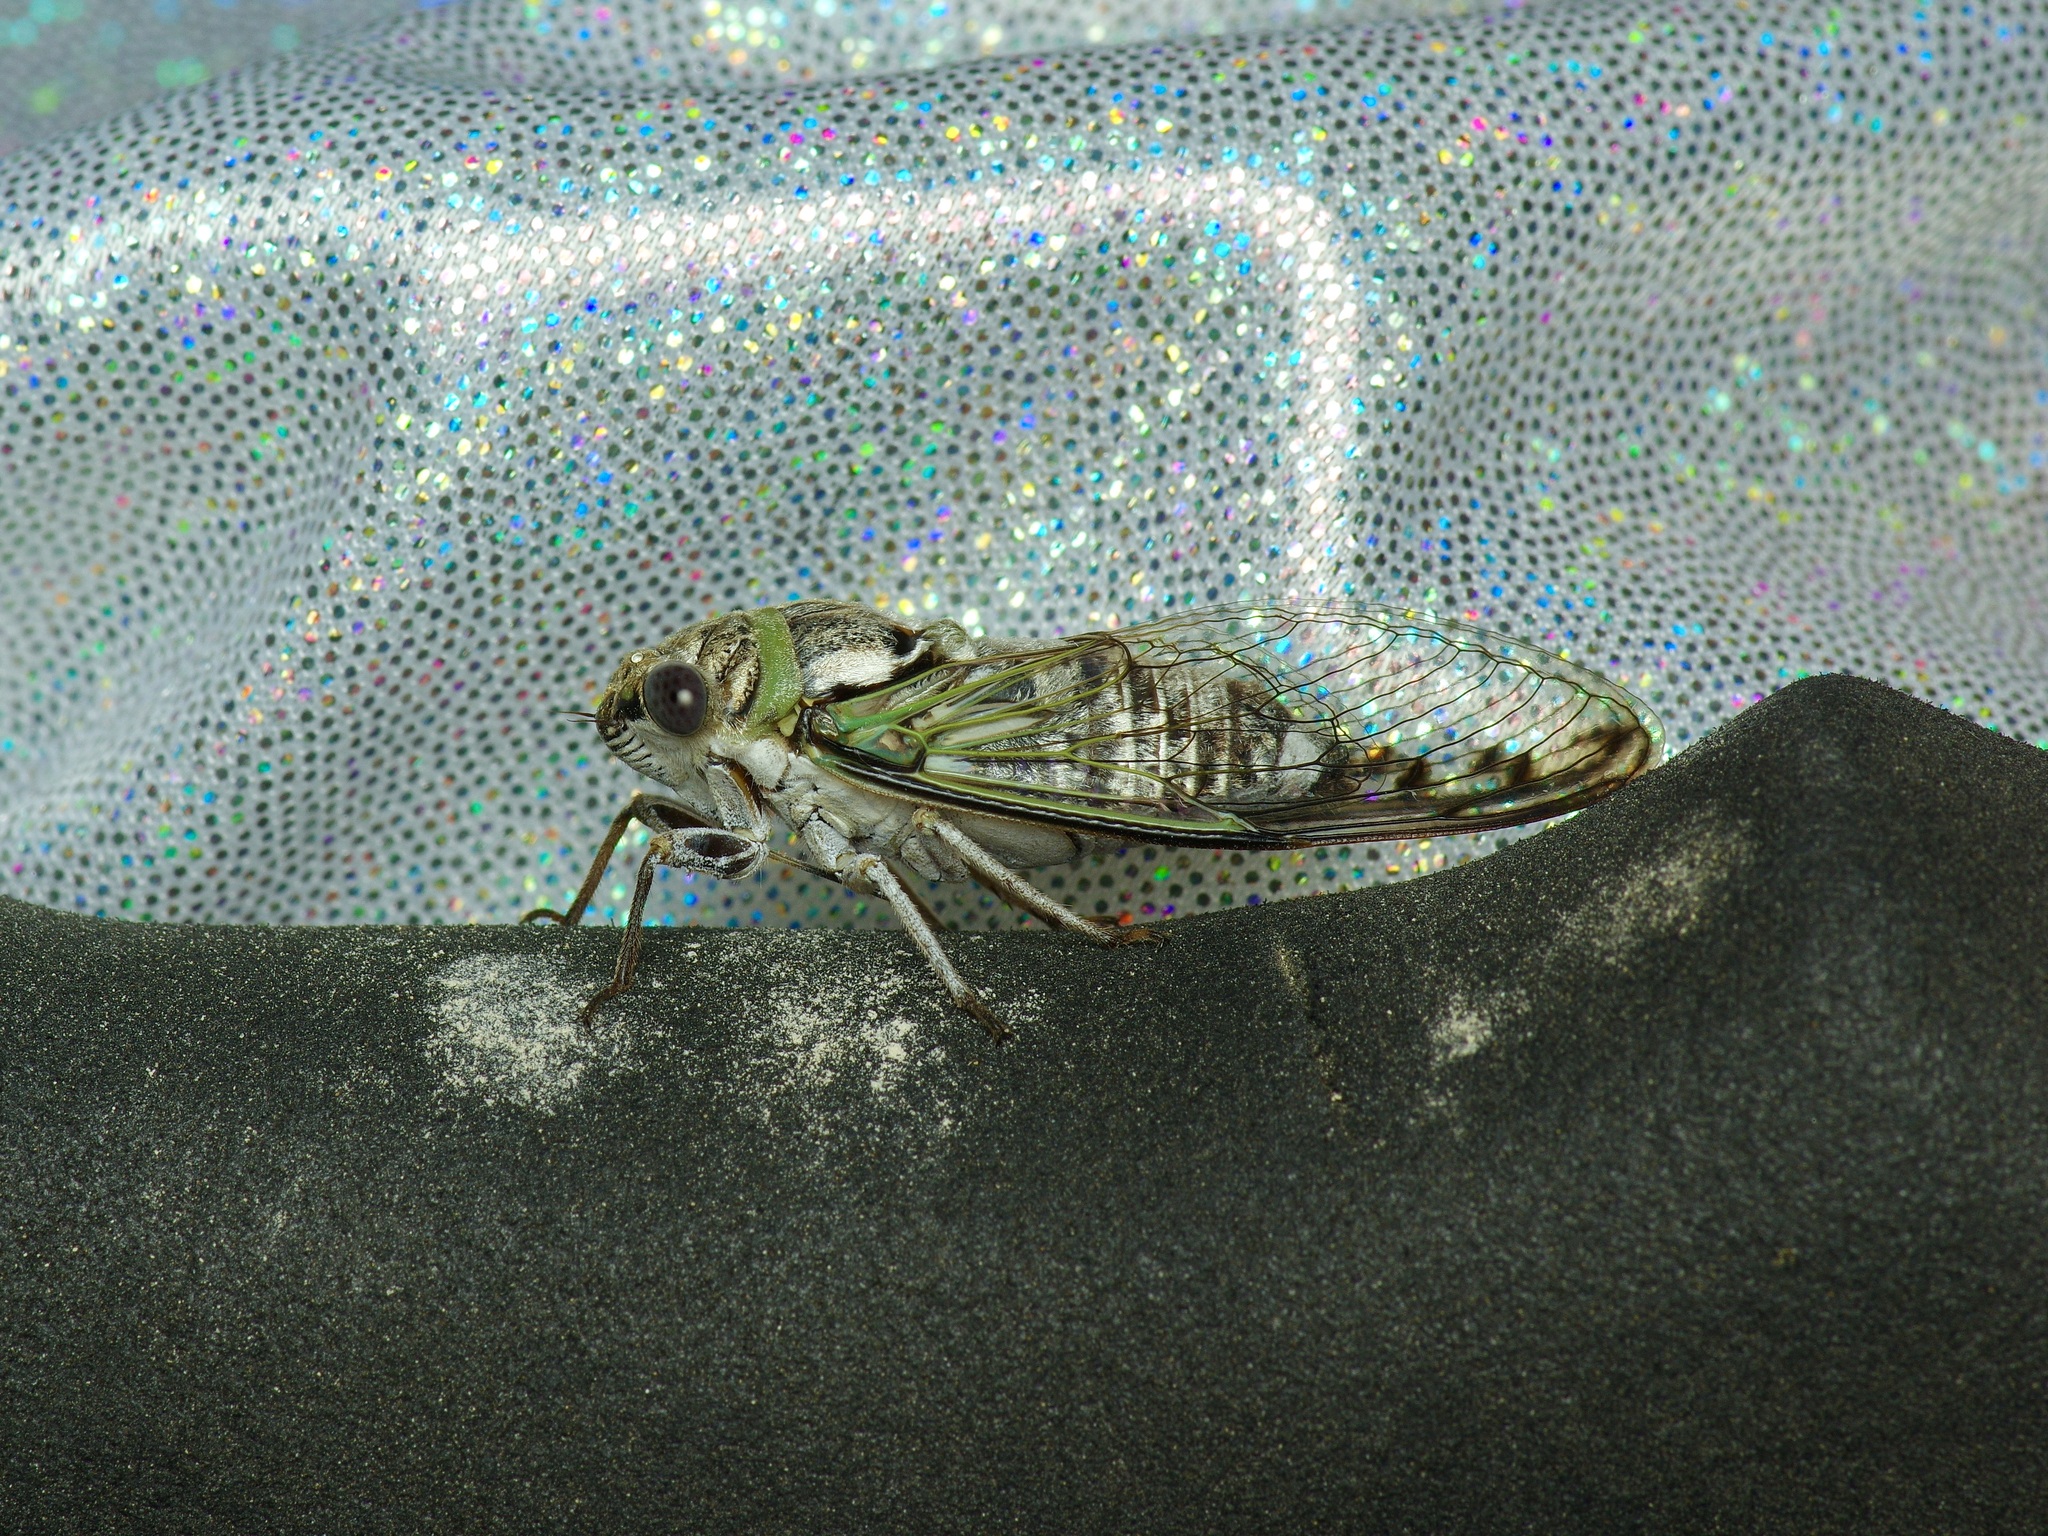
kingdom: Animalia
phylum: Arthropoda
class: Insecta
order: Hemiptera
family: Cicadidae
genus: Diceroprocta
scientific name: Diceroprocta texana
